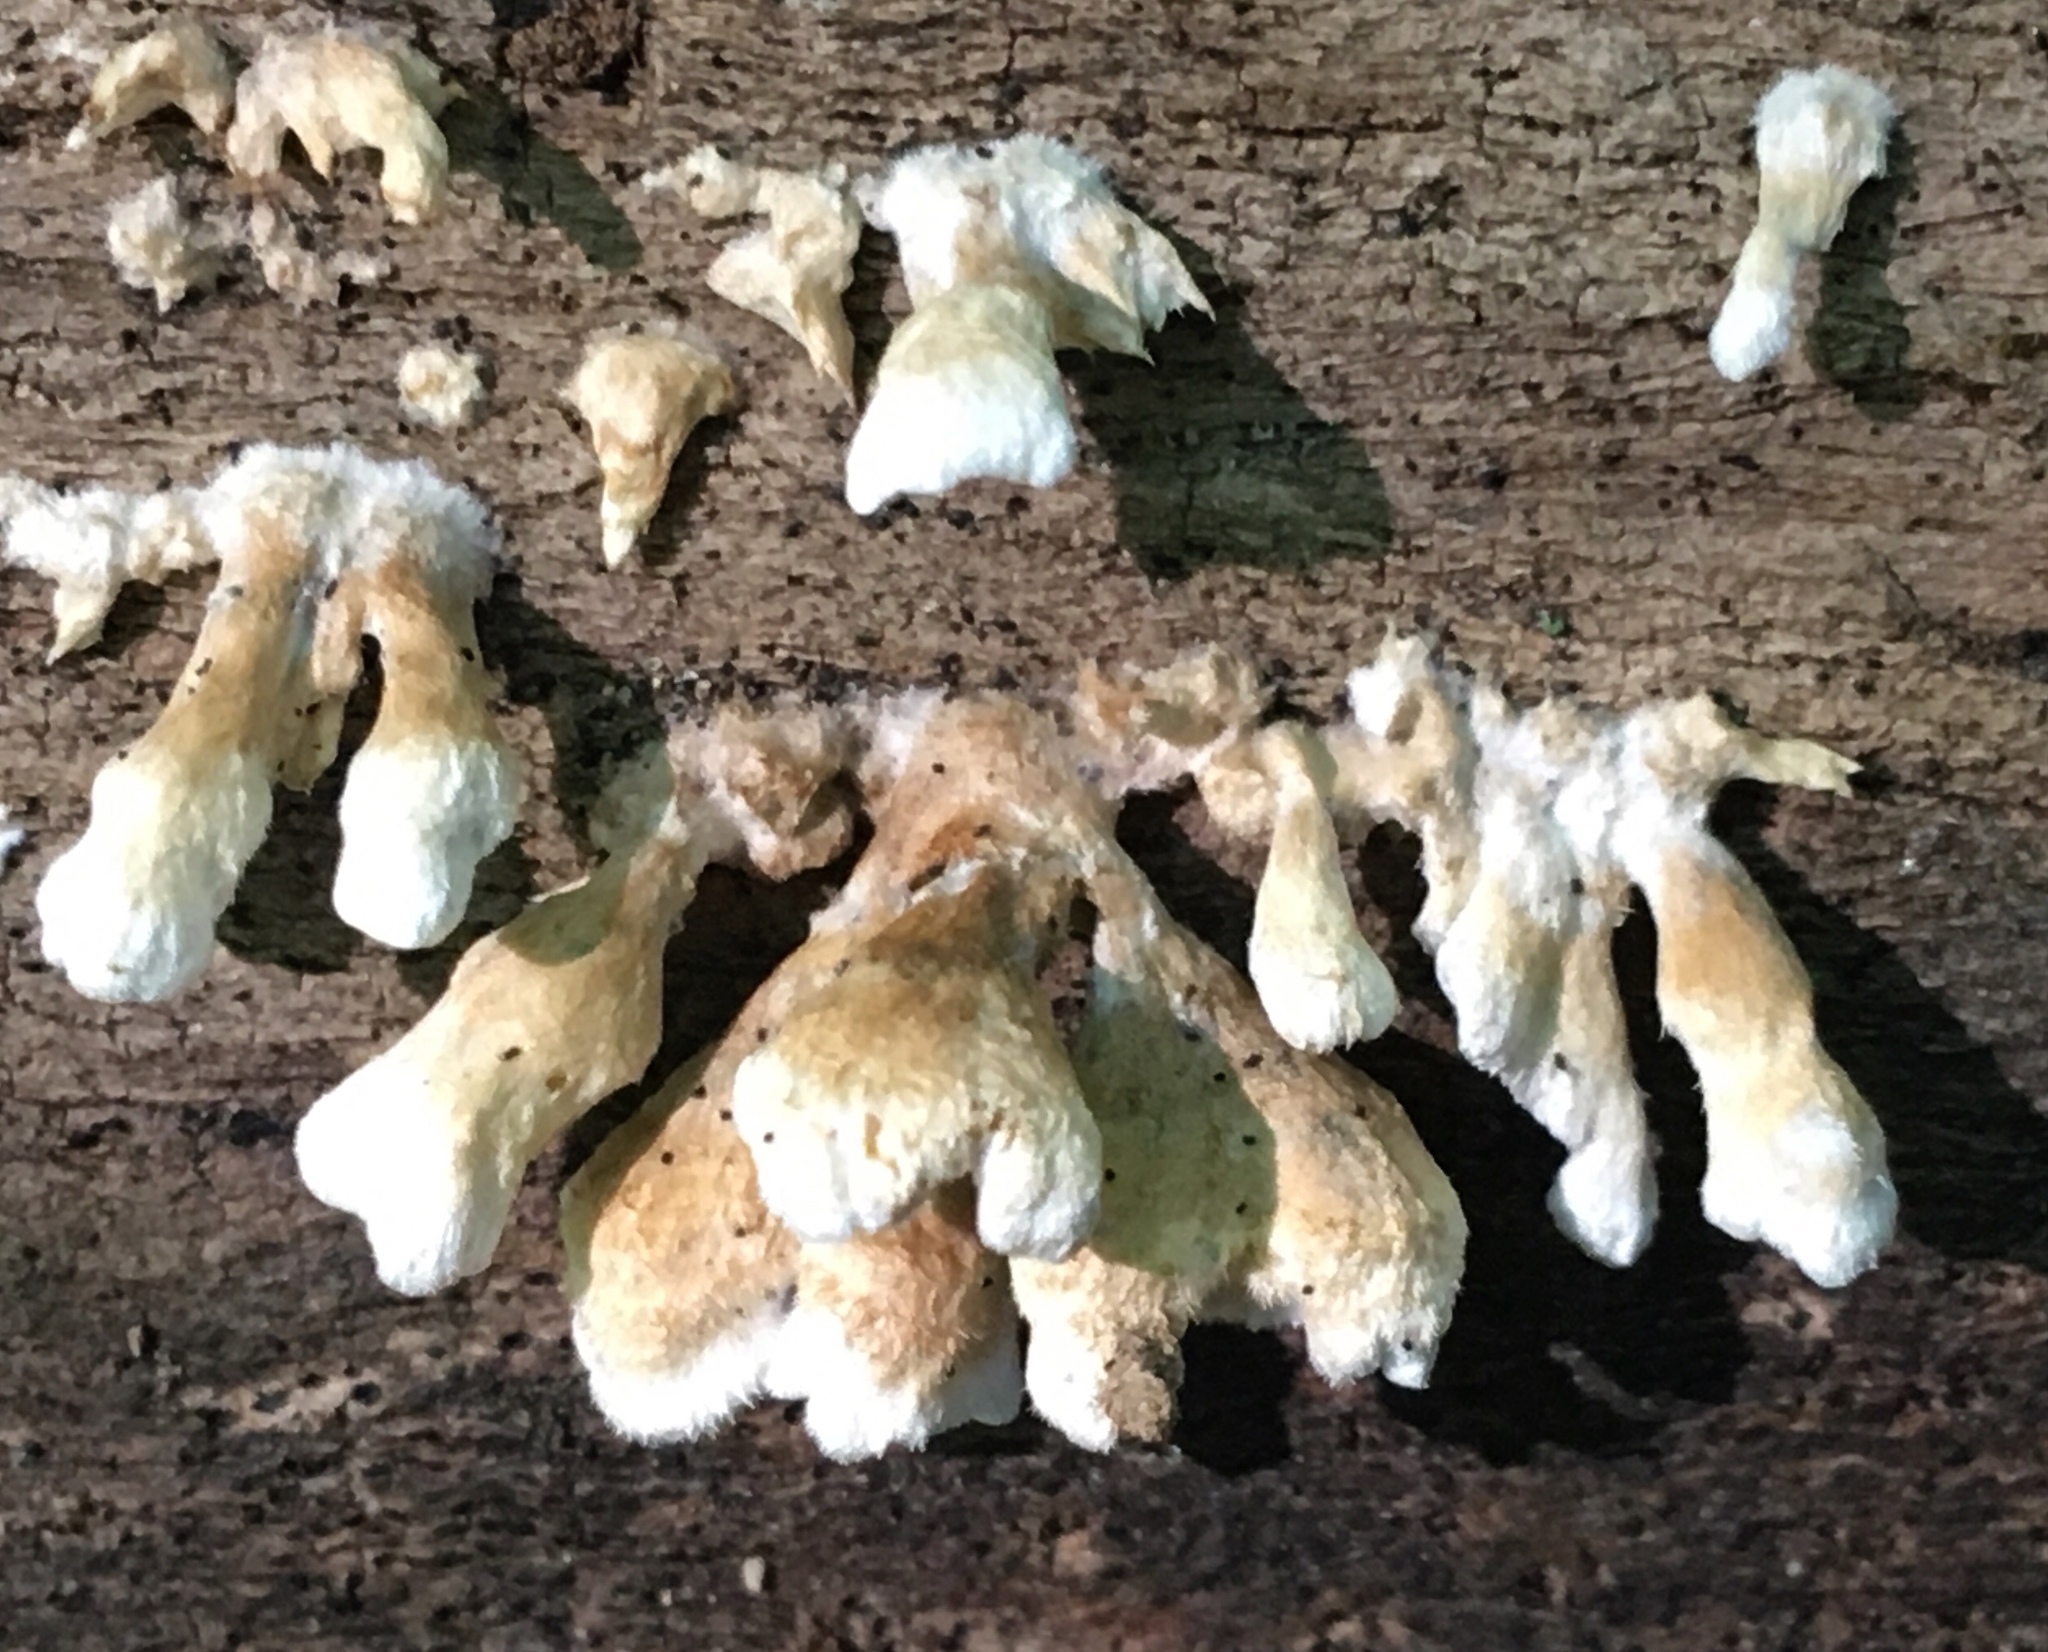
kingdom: Fungi
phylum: Basidiomycota
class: Agaricomycetes
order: Amylocorticiales
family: Amylocorticiaceae
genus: Plicaturopsis
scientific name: Plicaturopsis crispa
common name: Crimped gill
